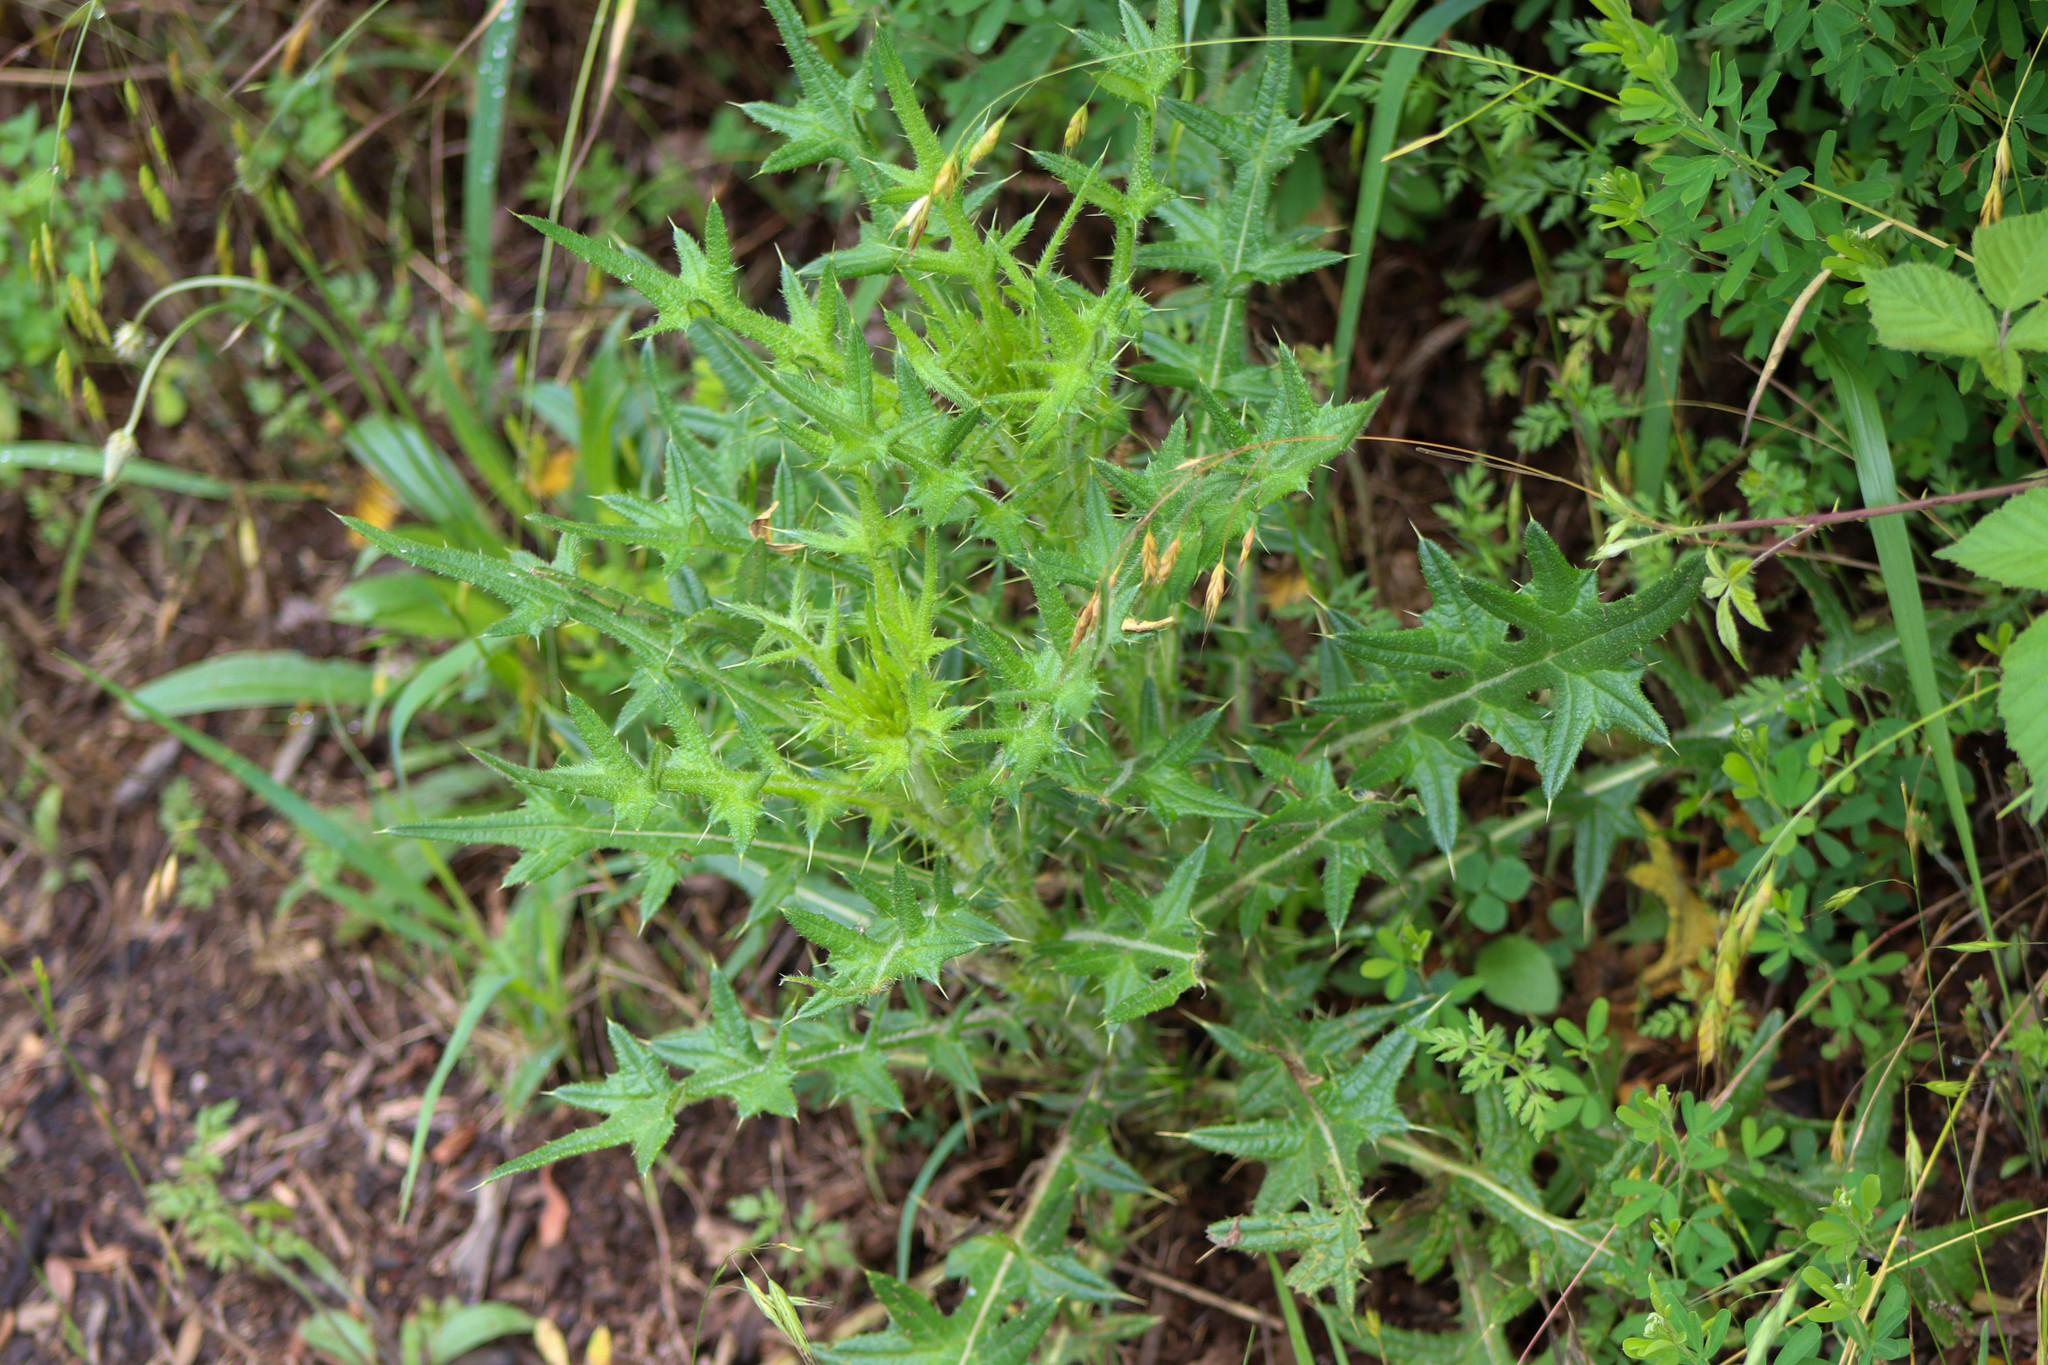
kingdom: Plantae
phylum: Tracheophyta
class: Magnoliopsida
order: Asterales
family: Asteraceae
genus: Cirsium
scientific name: Cirsium vulgare
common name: Bull thistle
